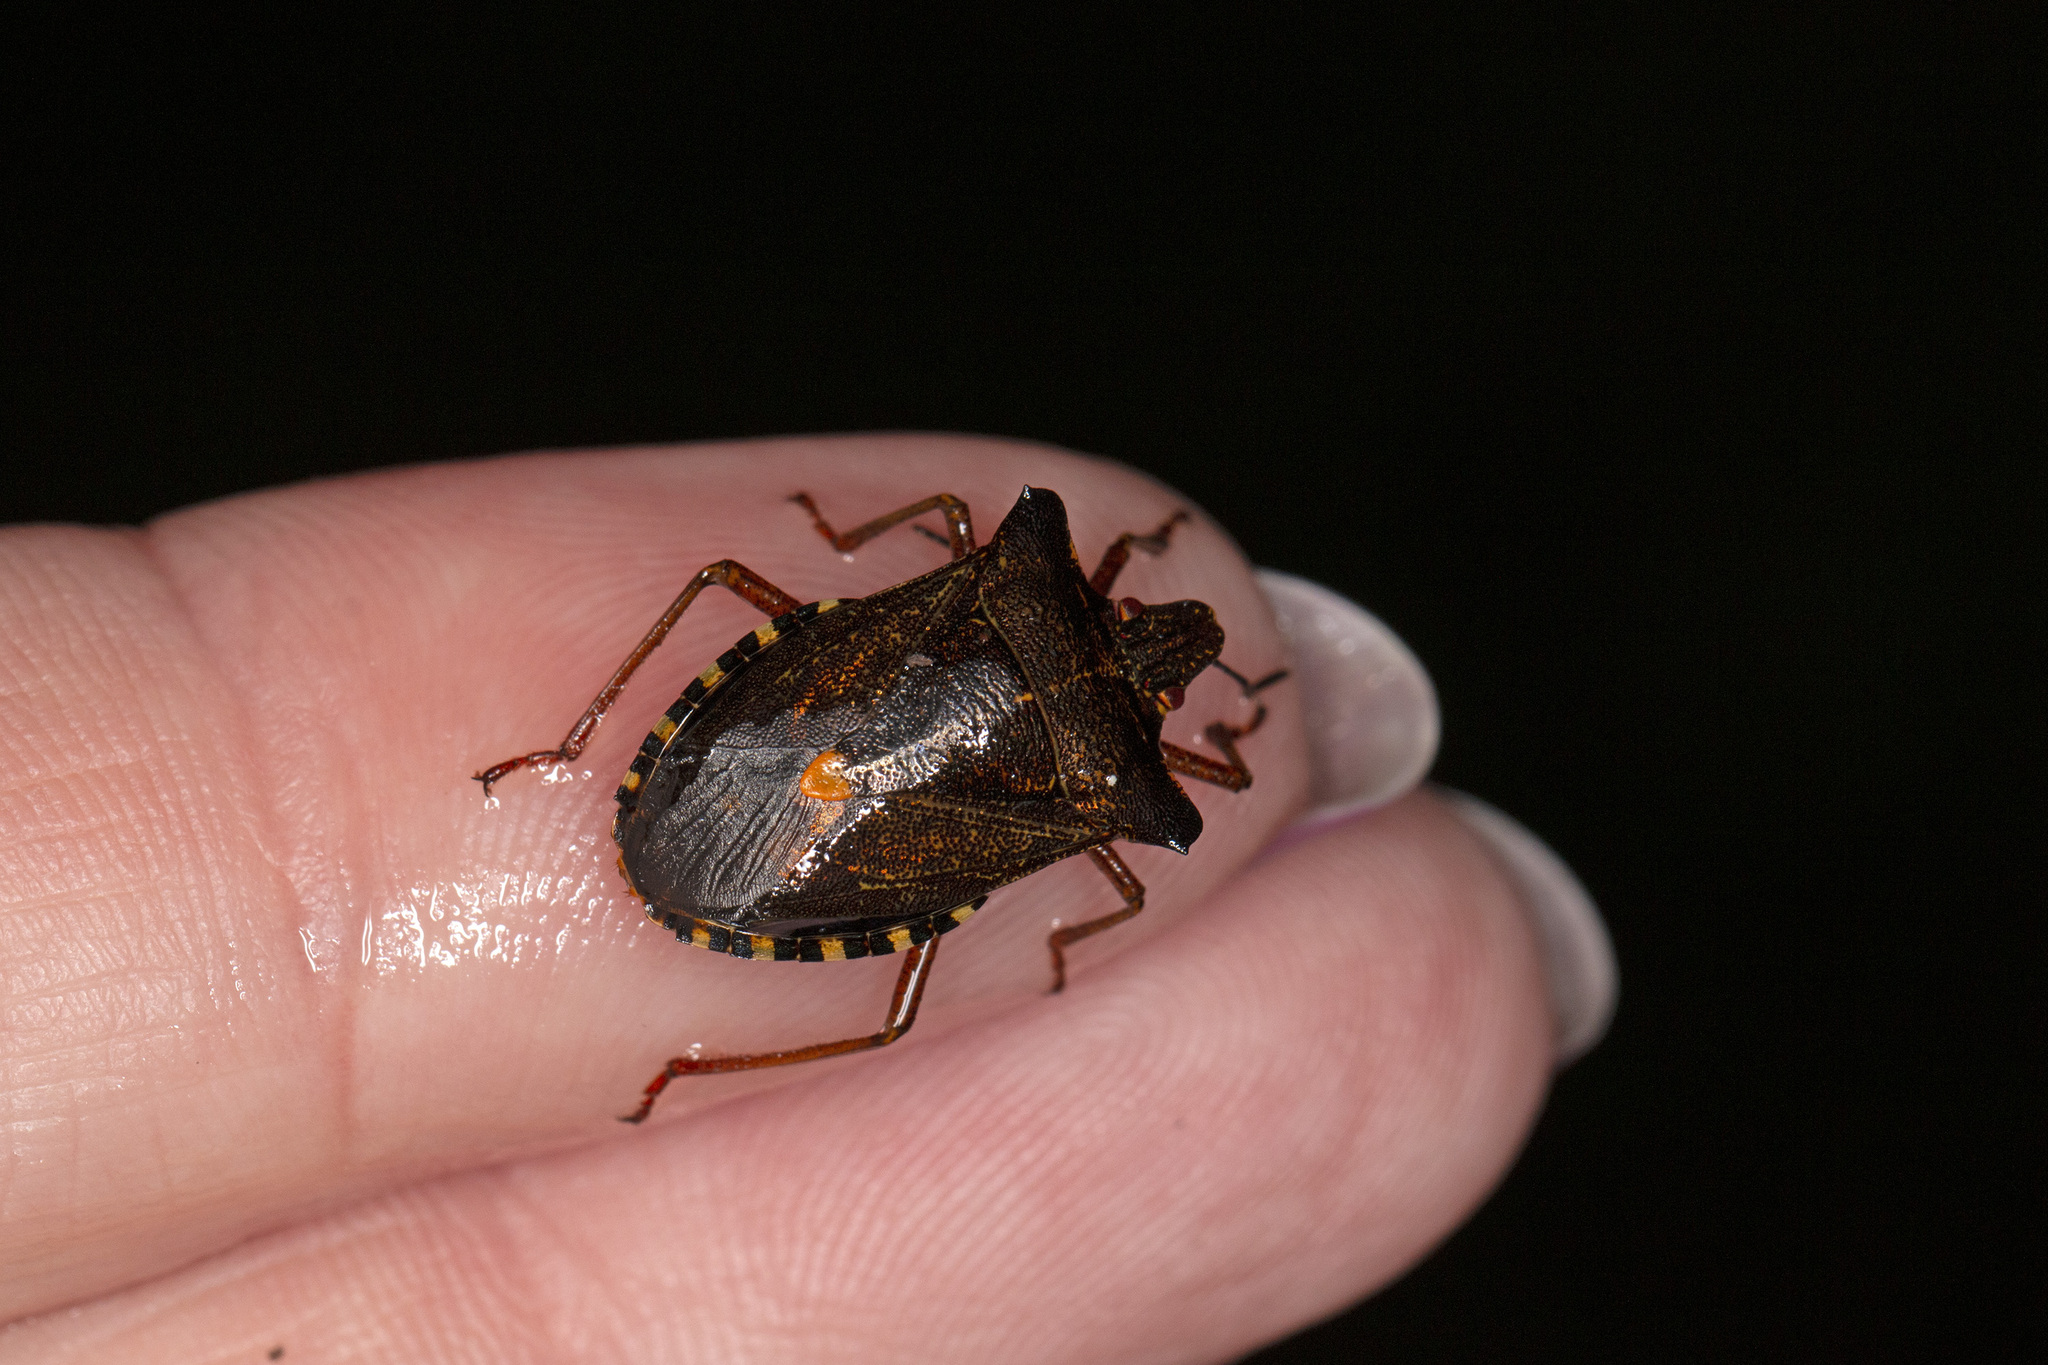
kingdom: Animalia
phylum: Arthropoda
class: Insecta
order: Hemiptera
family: Pentatomidae
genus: Pentatoma
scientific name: Pentatoma rufipes
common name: Forest bug
